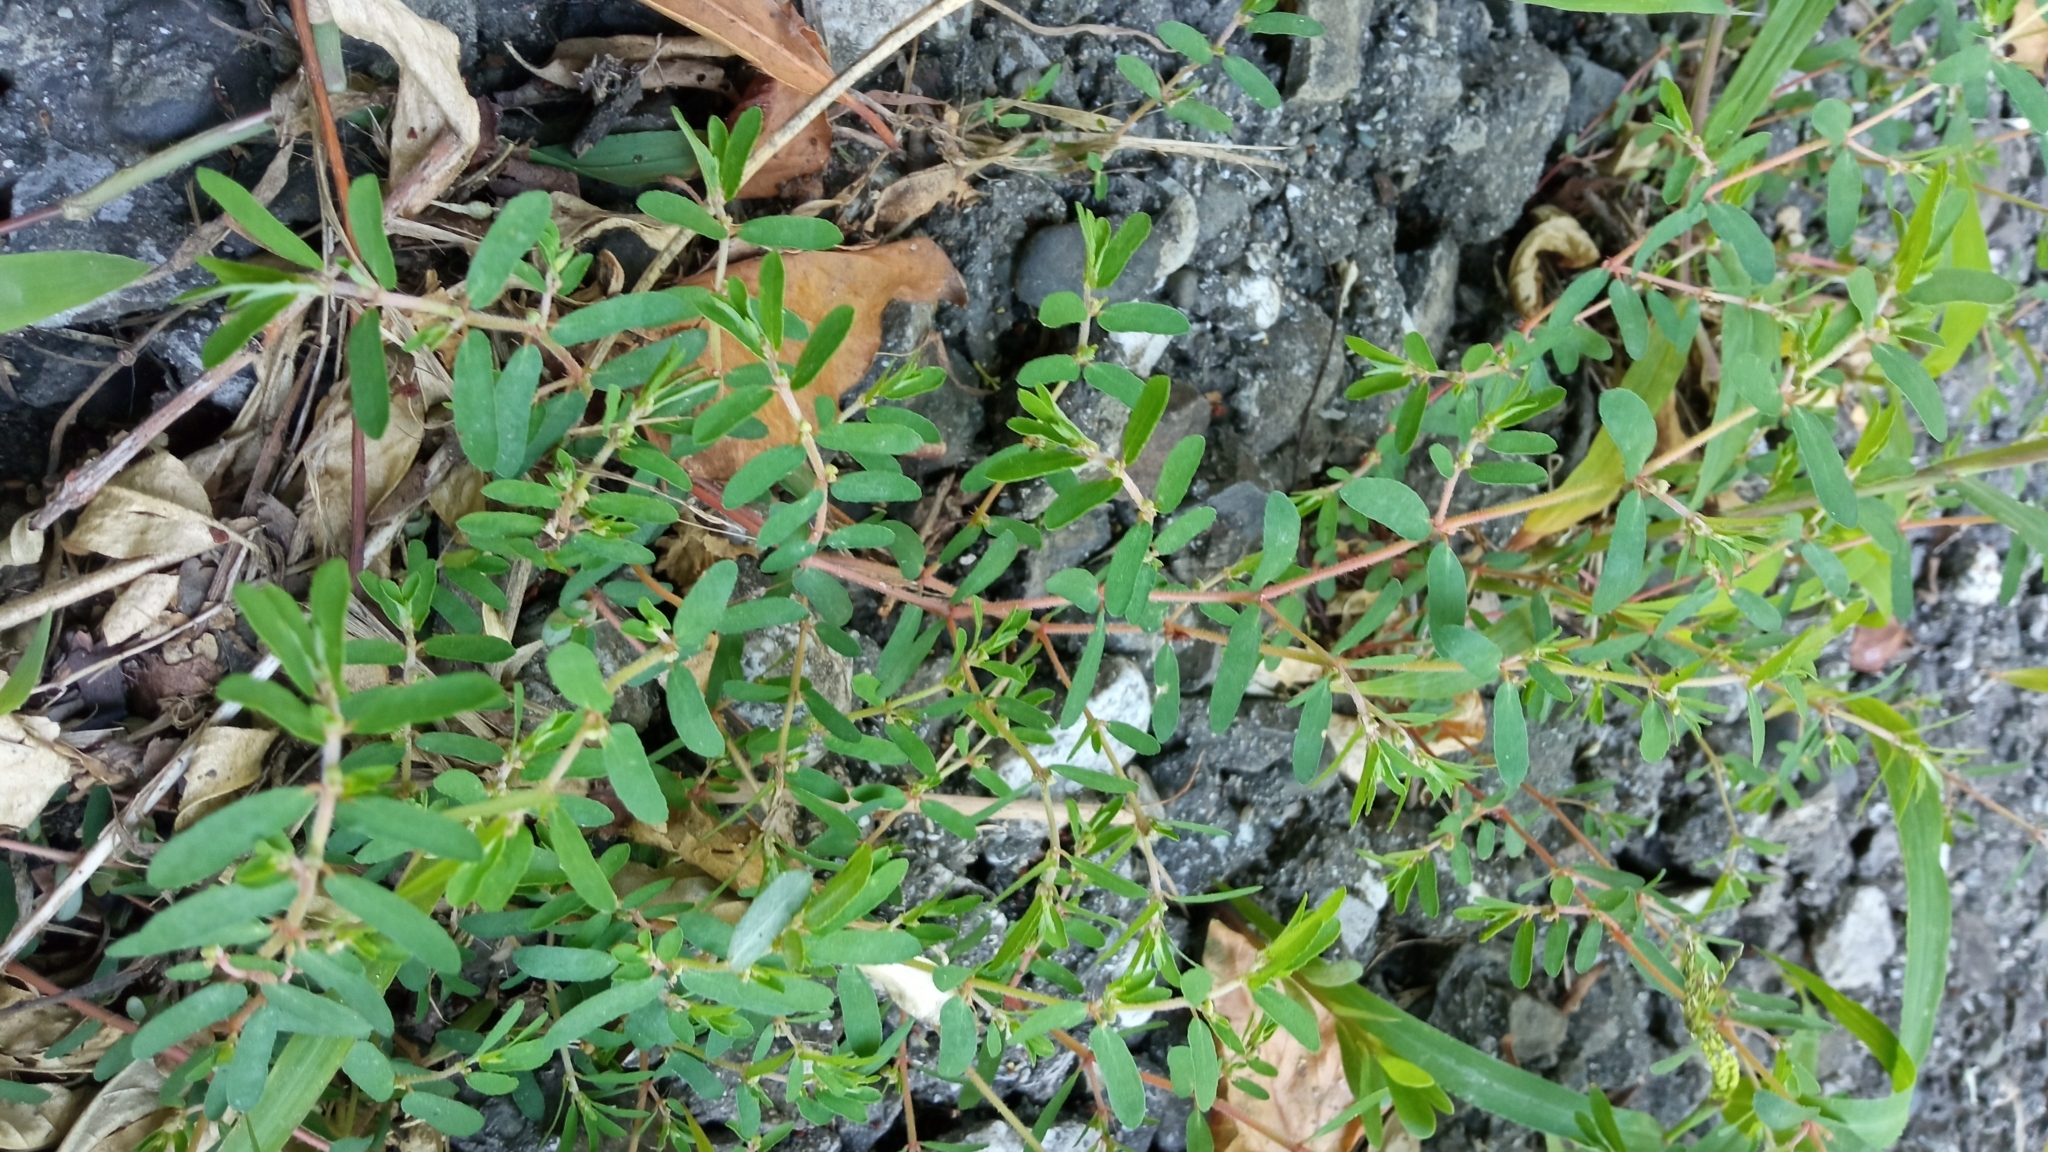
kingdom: Plantae
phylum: Tracheophyta
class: Magnoliopsida
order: Malpighiales
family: Euphorbiaceae
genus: Euphorbia
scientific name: Euphorbia nutans
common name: Eyebane
